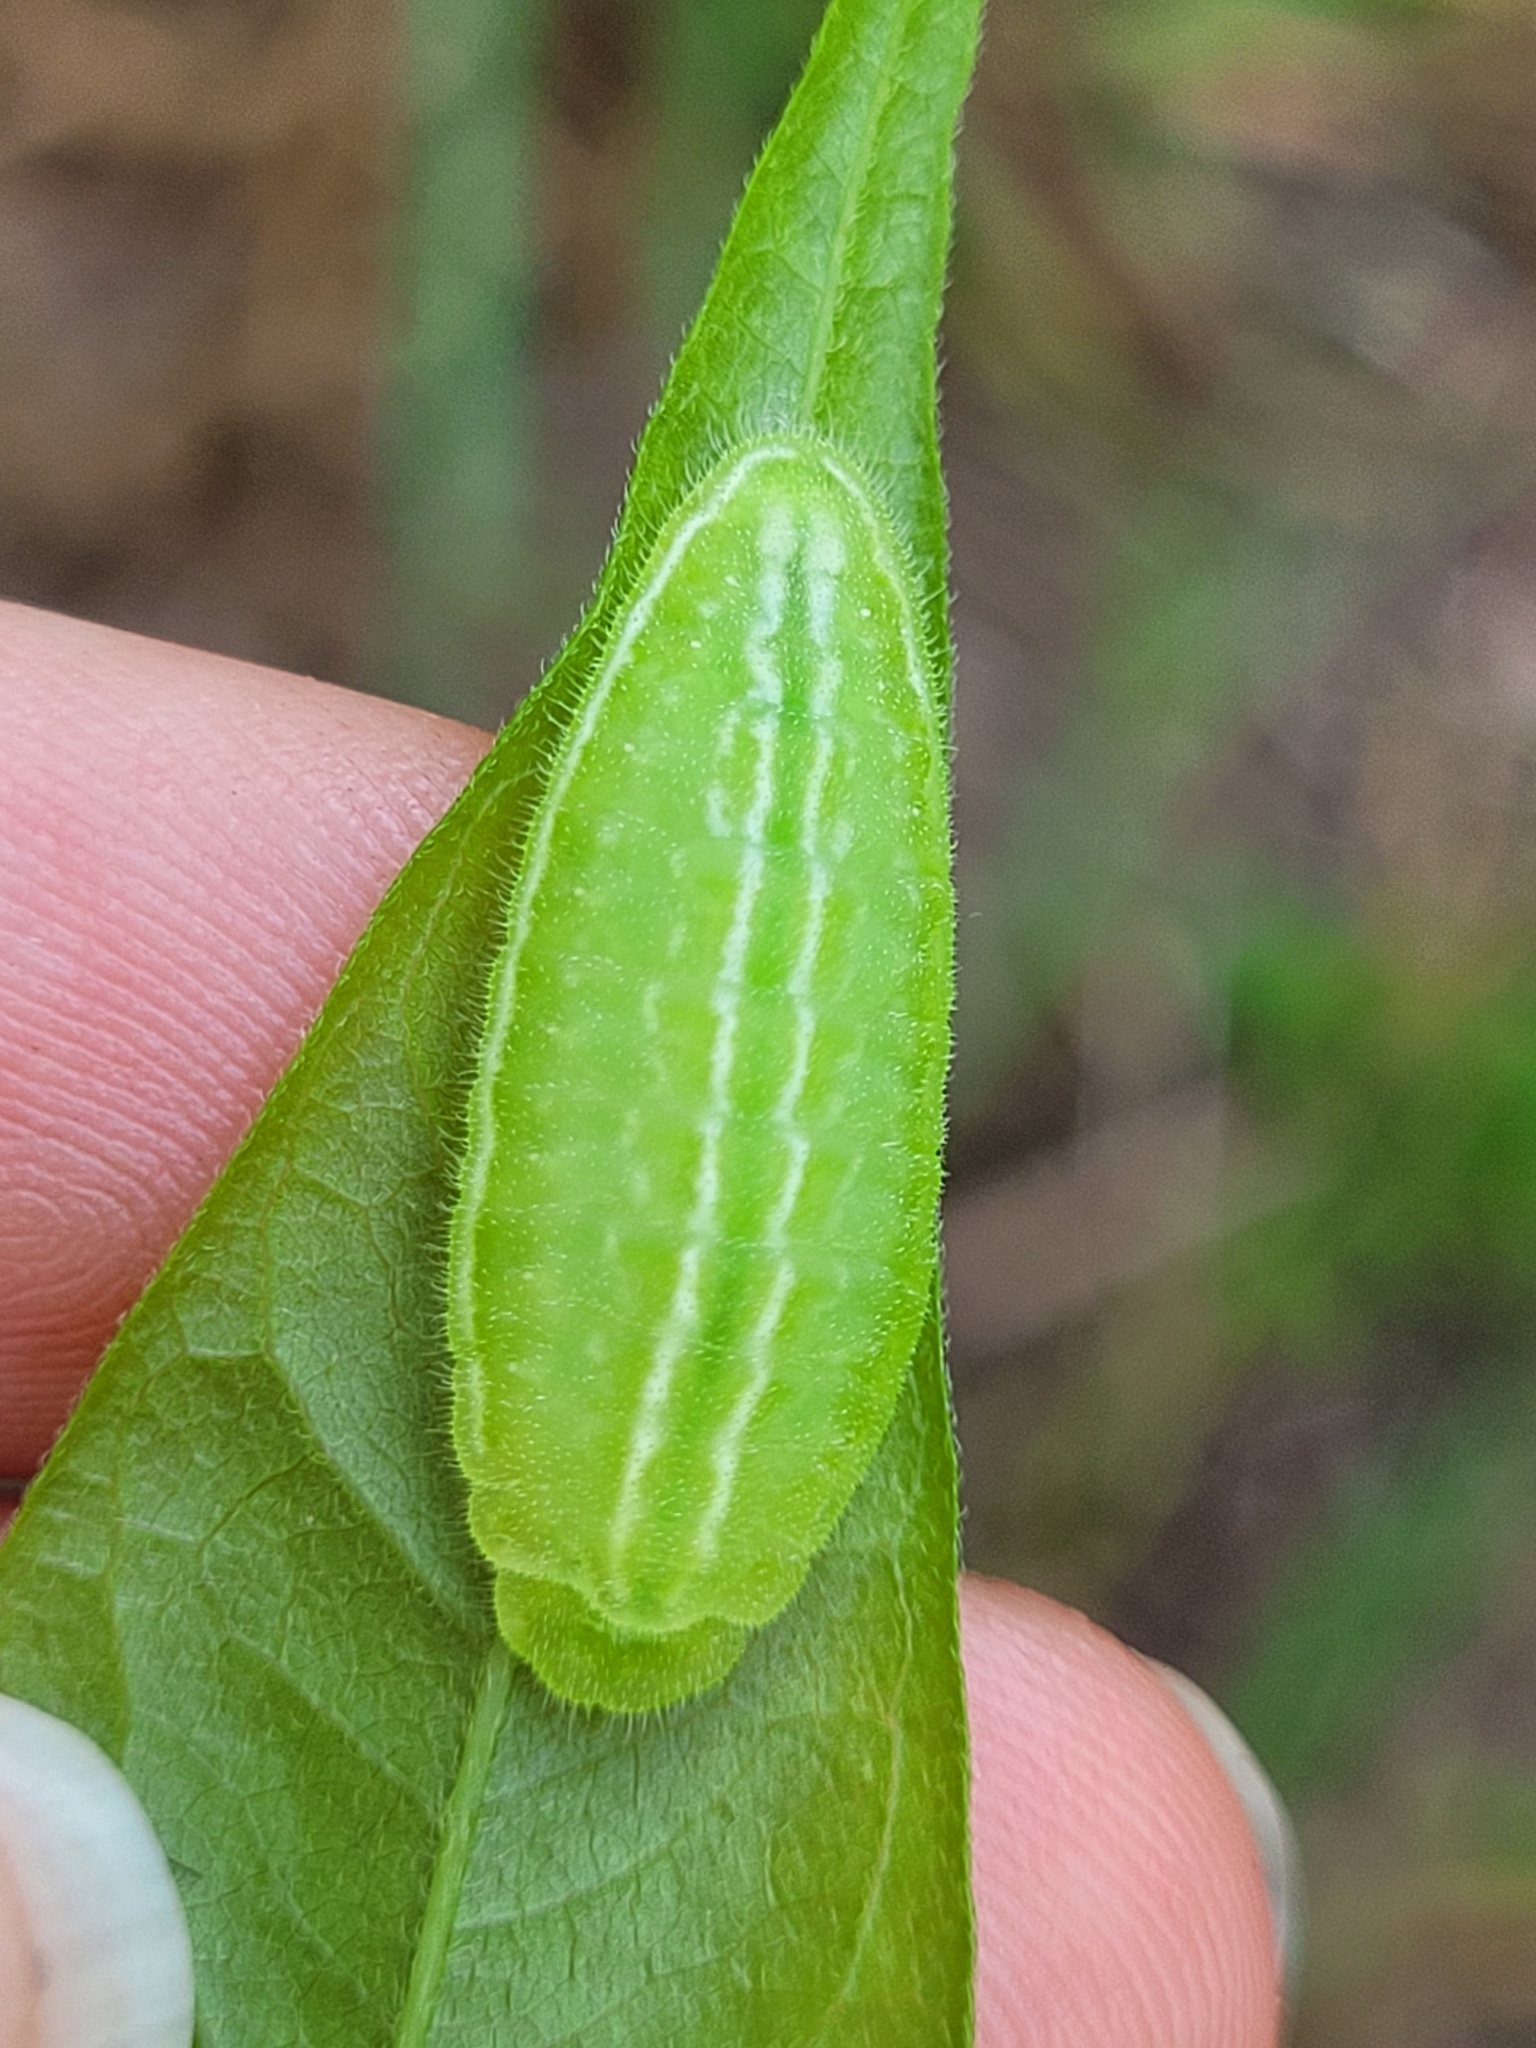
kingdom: Animalia
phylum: Arthropoda
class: Insecta
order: Lepidoptera
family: Lycaenidae
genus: Phaeostrymon
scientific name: Phaeostrymon alcestis
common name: Soapberry hairstreak
